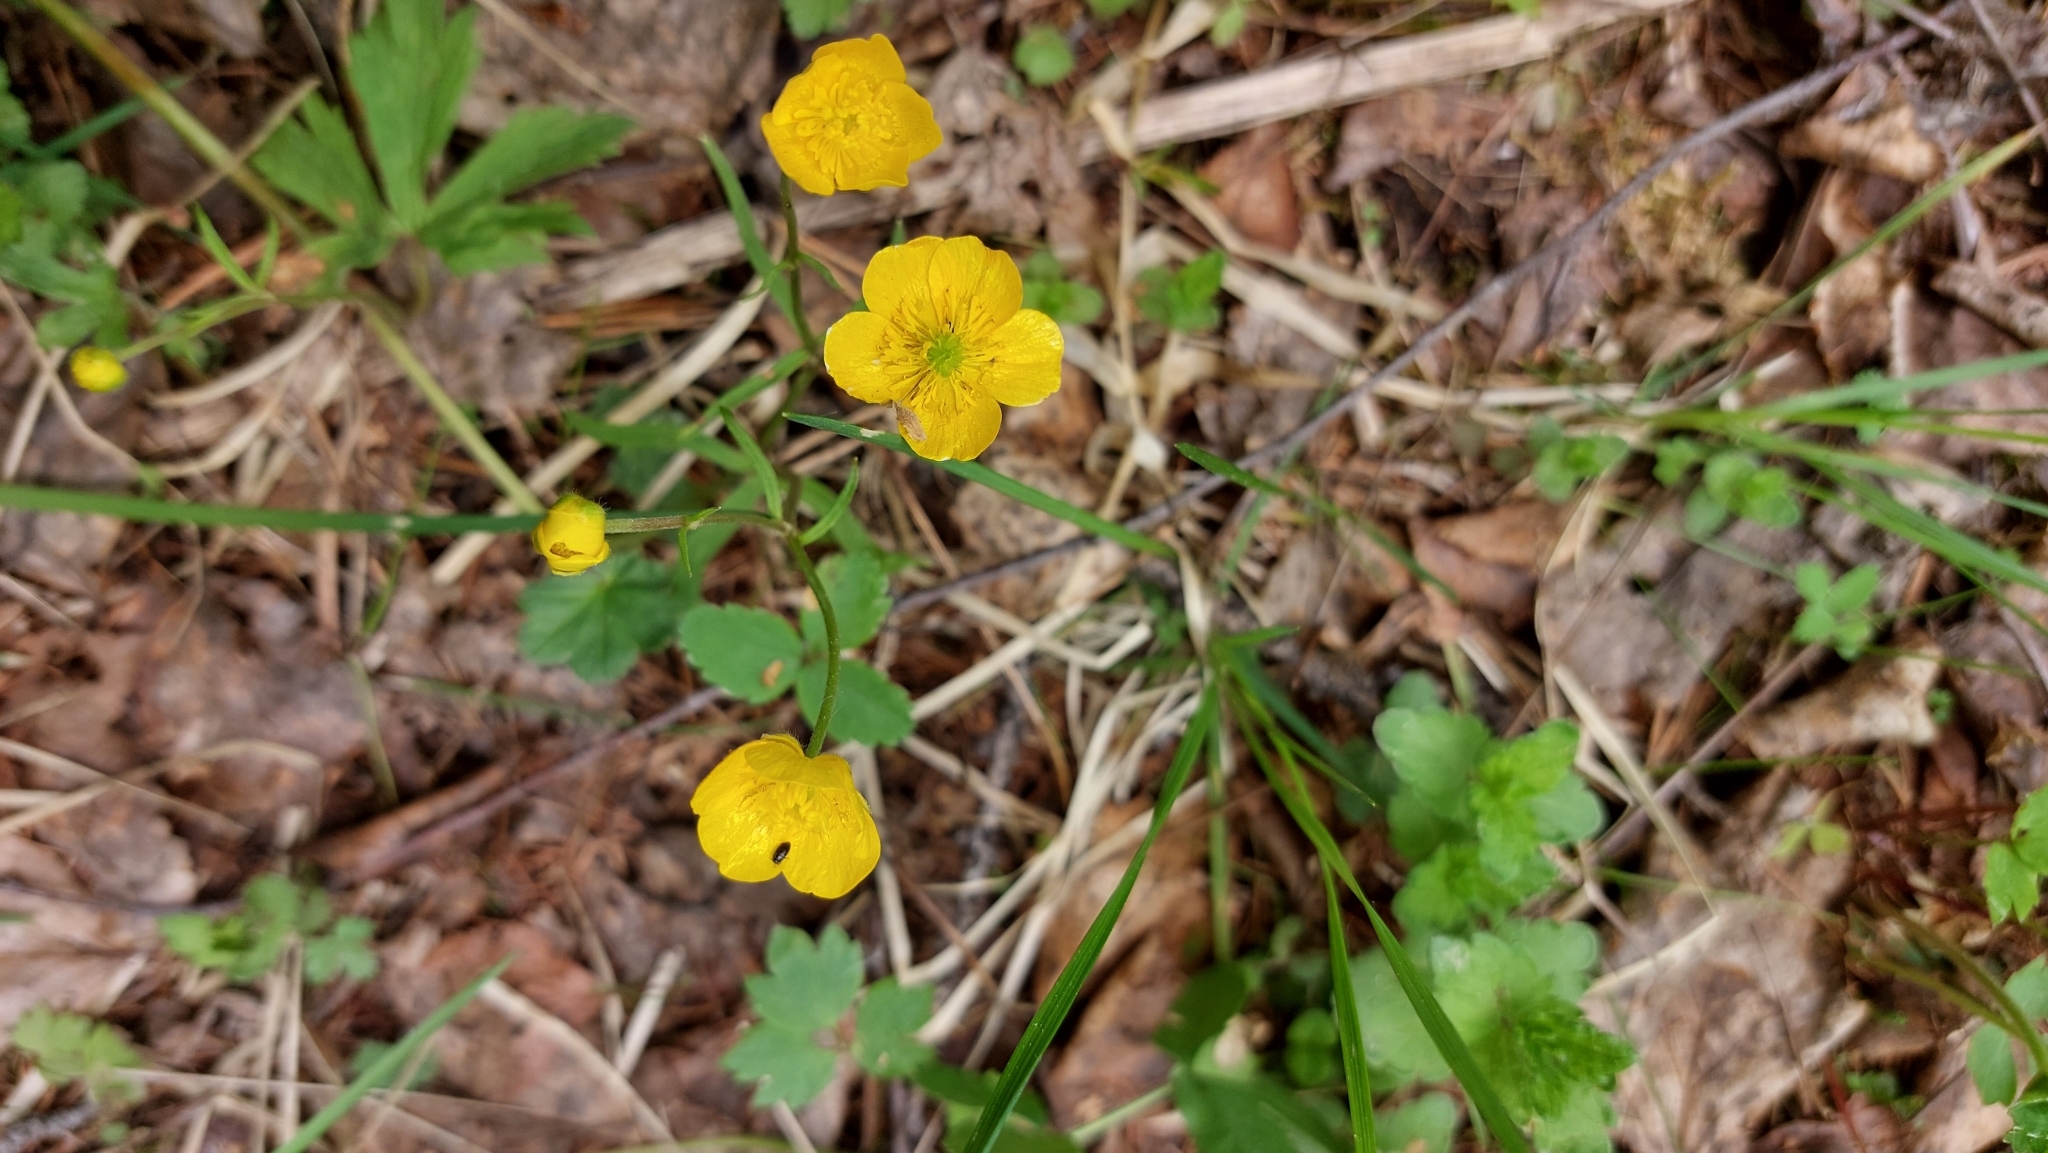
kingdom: Plantae
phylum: Tracheophyta
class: Magnoliopsida
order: Ranunculales
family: Ranunculaceae
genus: Ranunculus
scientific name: Ranunculus auricomus
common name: Goldilocks buttercup
